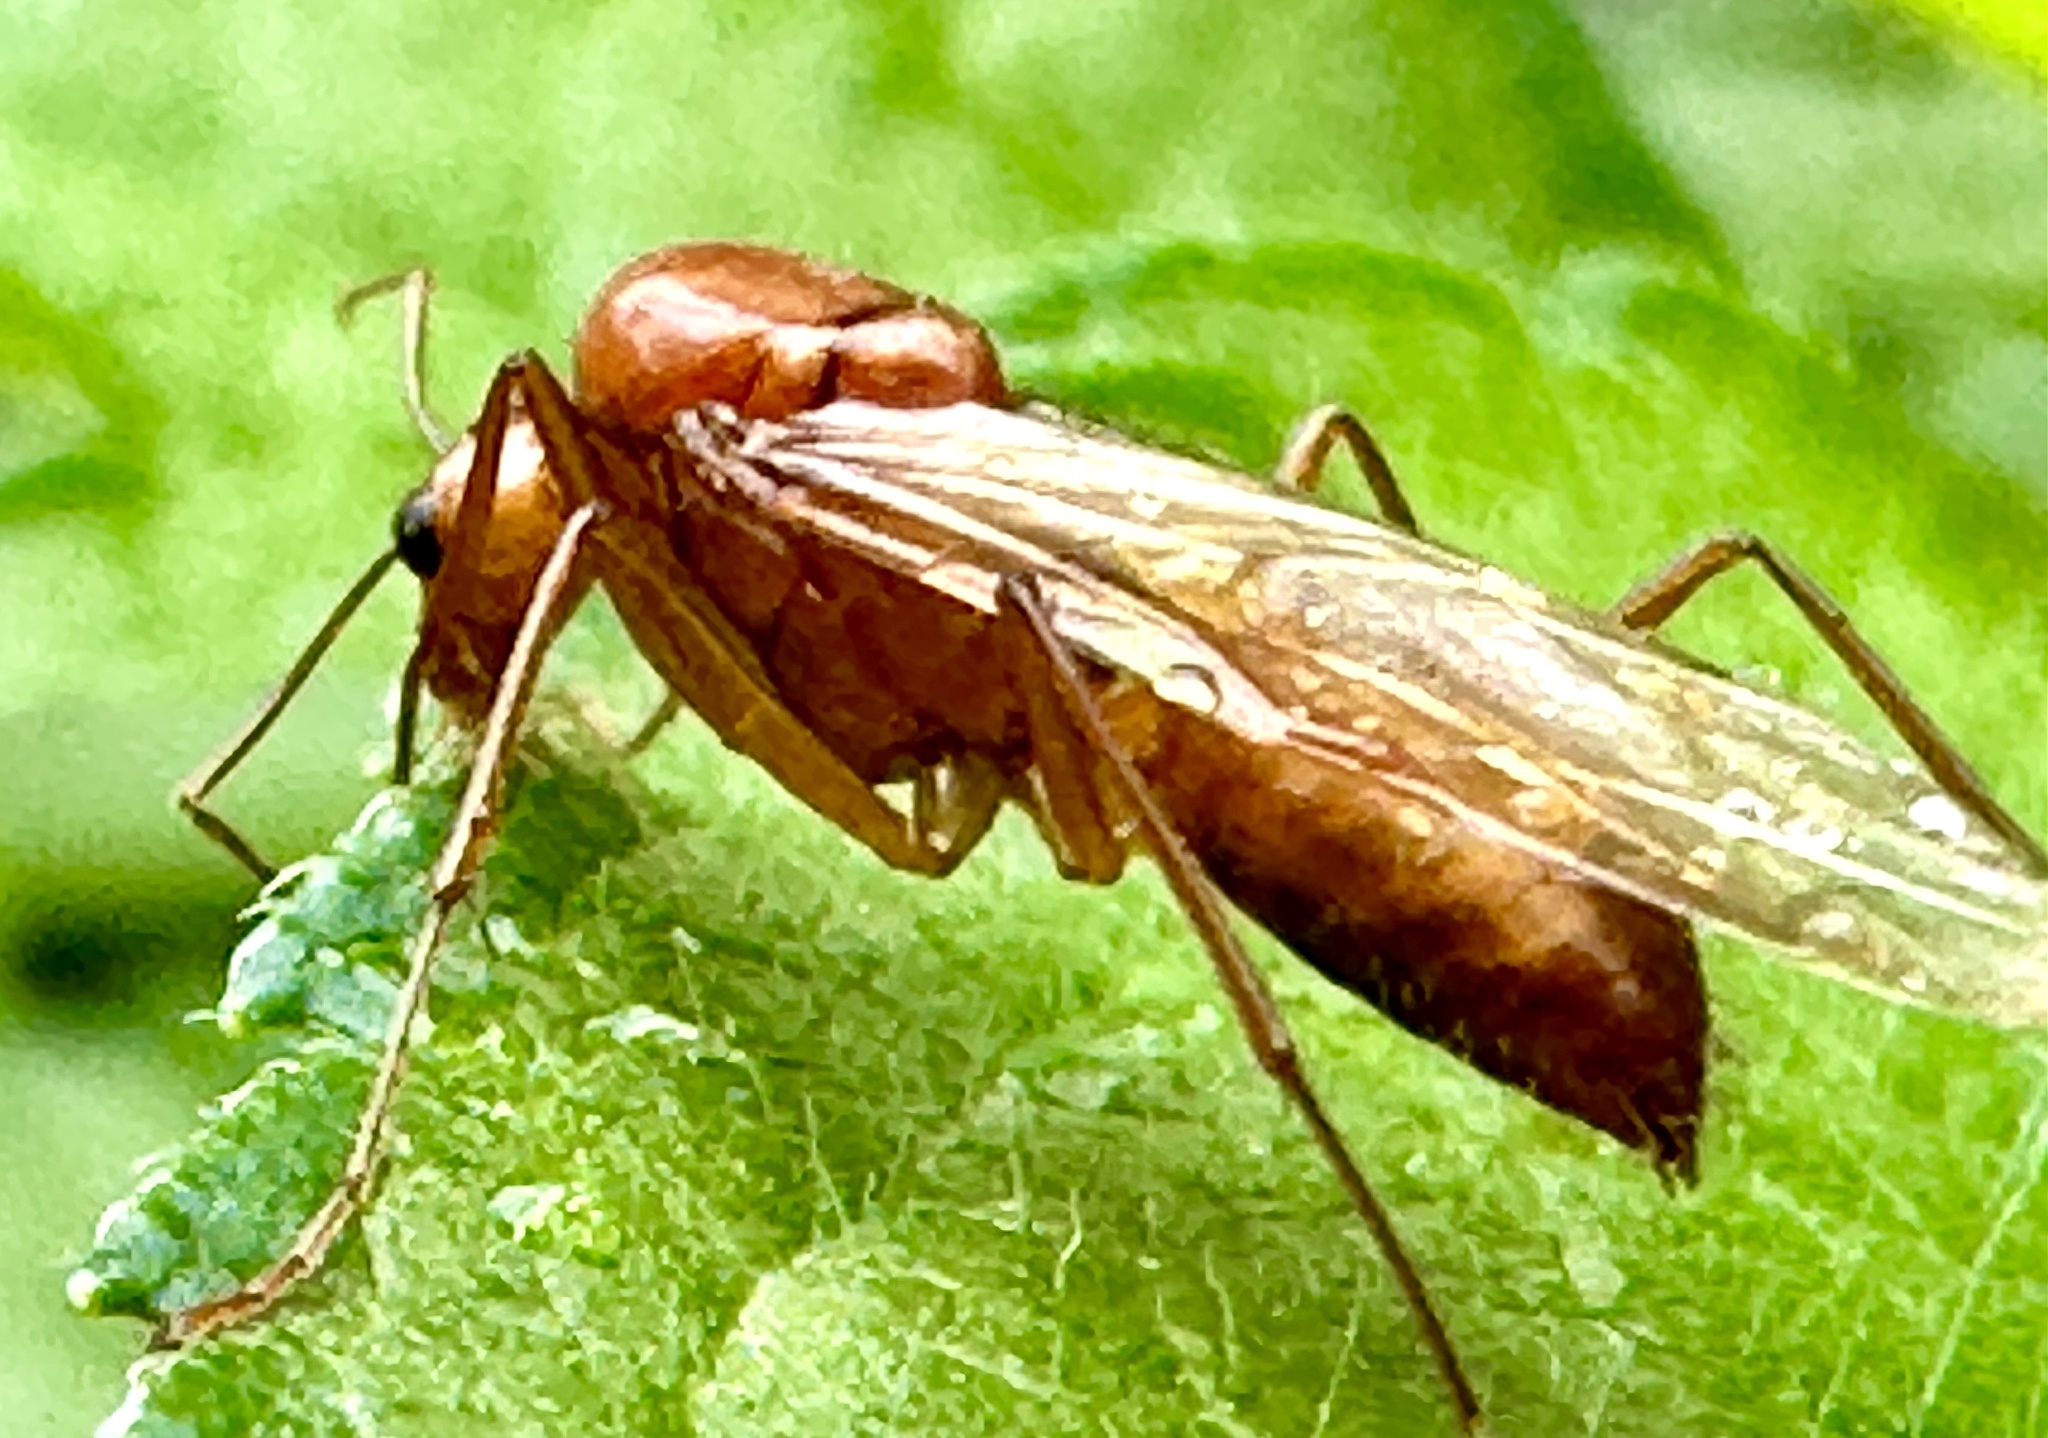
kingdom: Animalia
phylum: Arthropoda
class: Insecta
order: Hymenoptera
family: Formicidae
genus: Camponotus
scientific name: Camponotus castaneus
